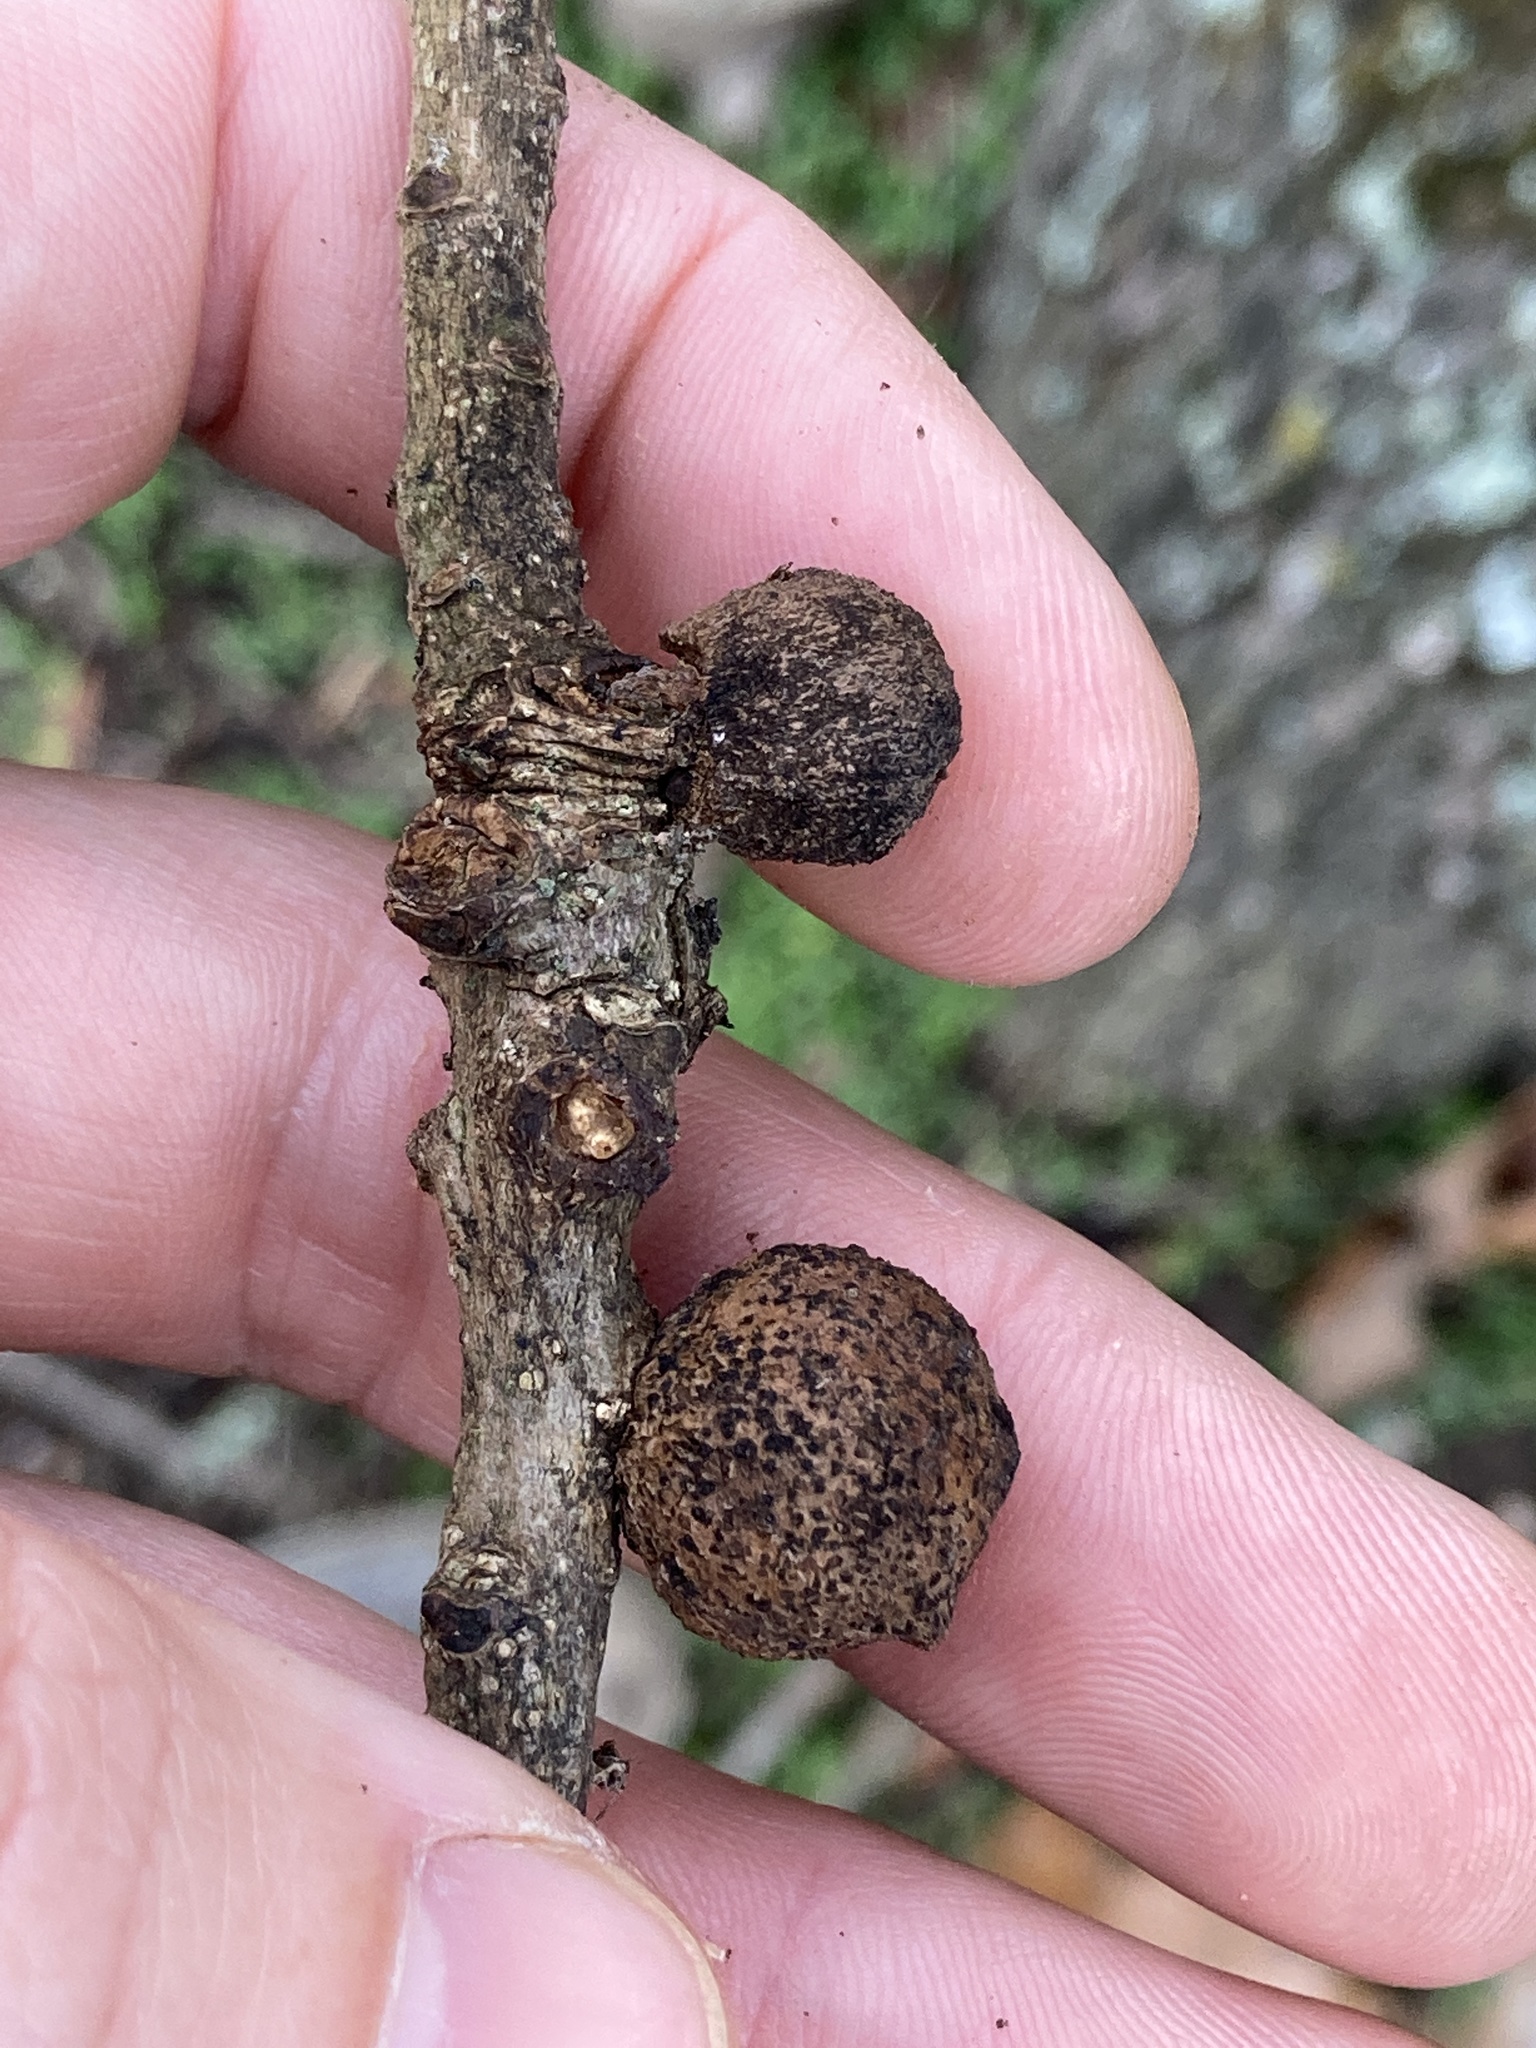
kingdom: Animalia
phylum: Arthropoda
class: Insecta
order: Hymenoptera
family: Cynipidae
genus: Disholcaspis
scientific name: Disholcaspis quercusglobulus
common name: Round bullet gall wasp
